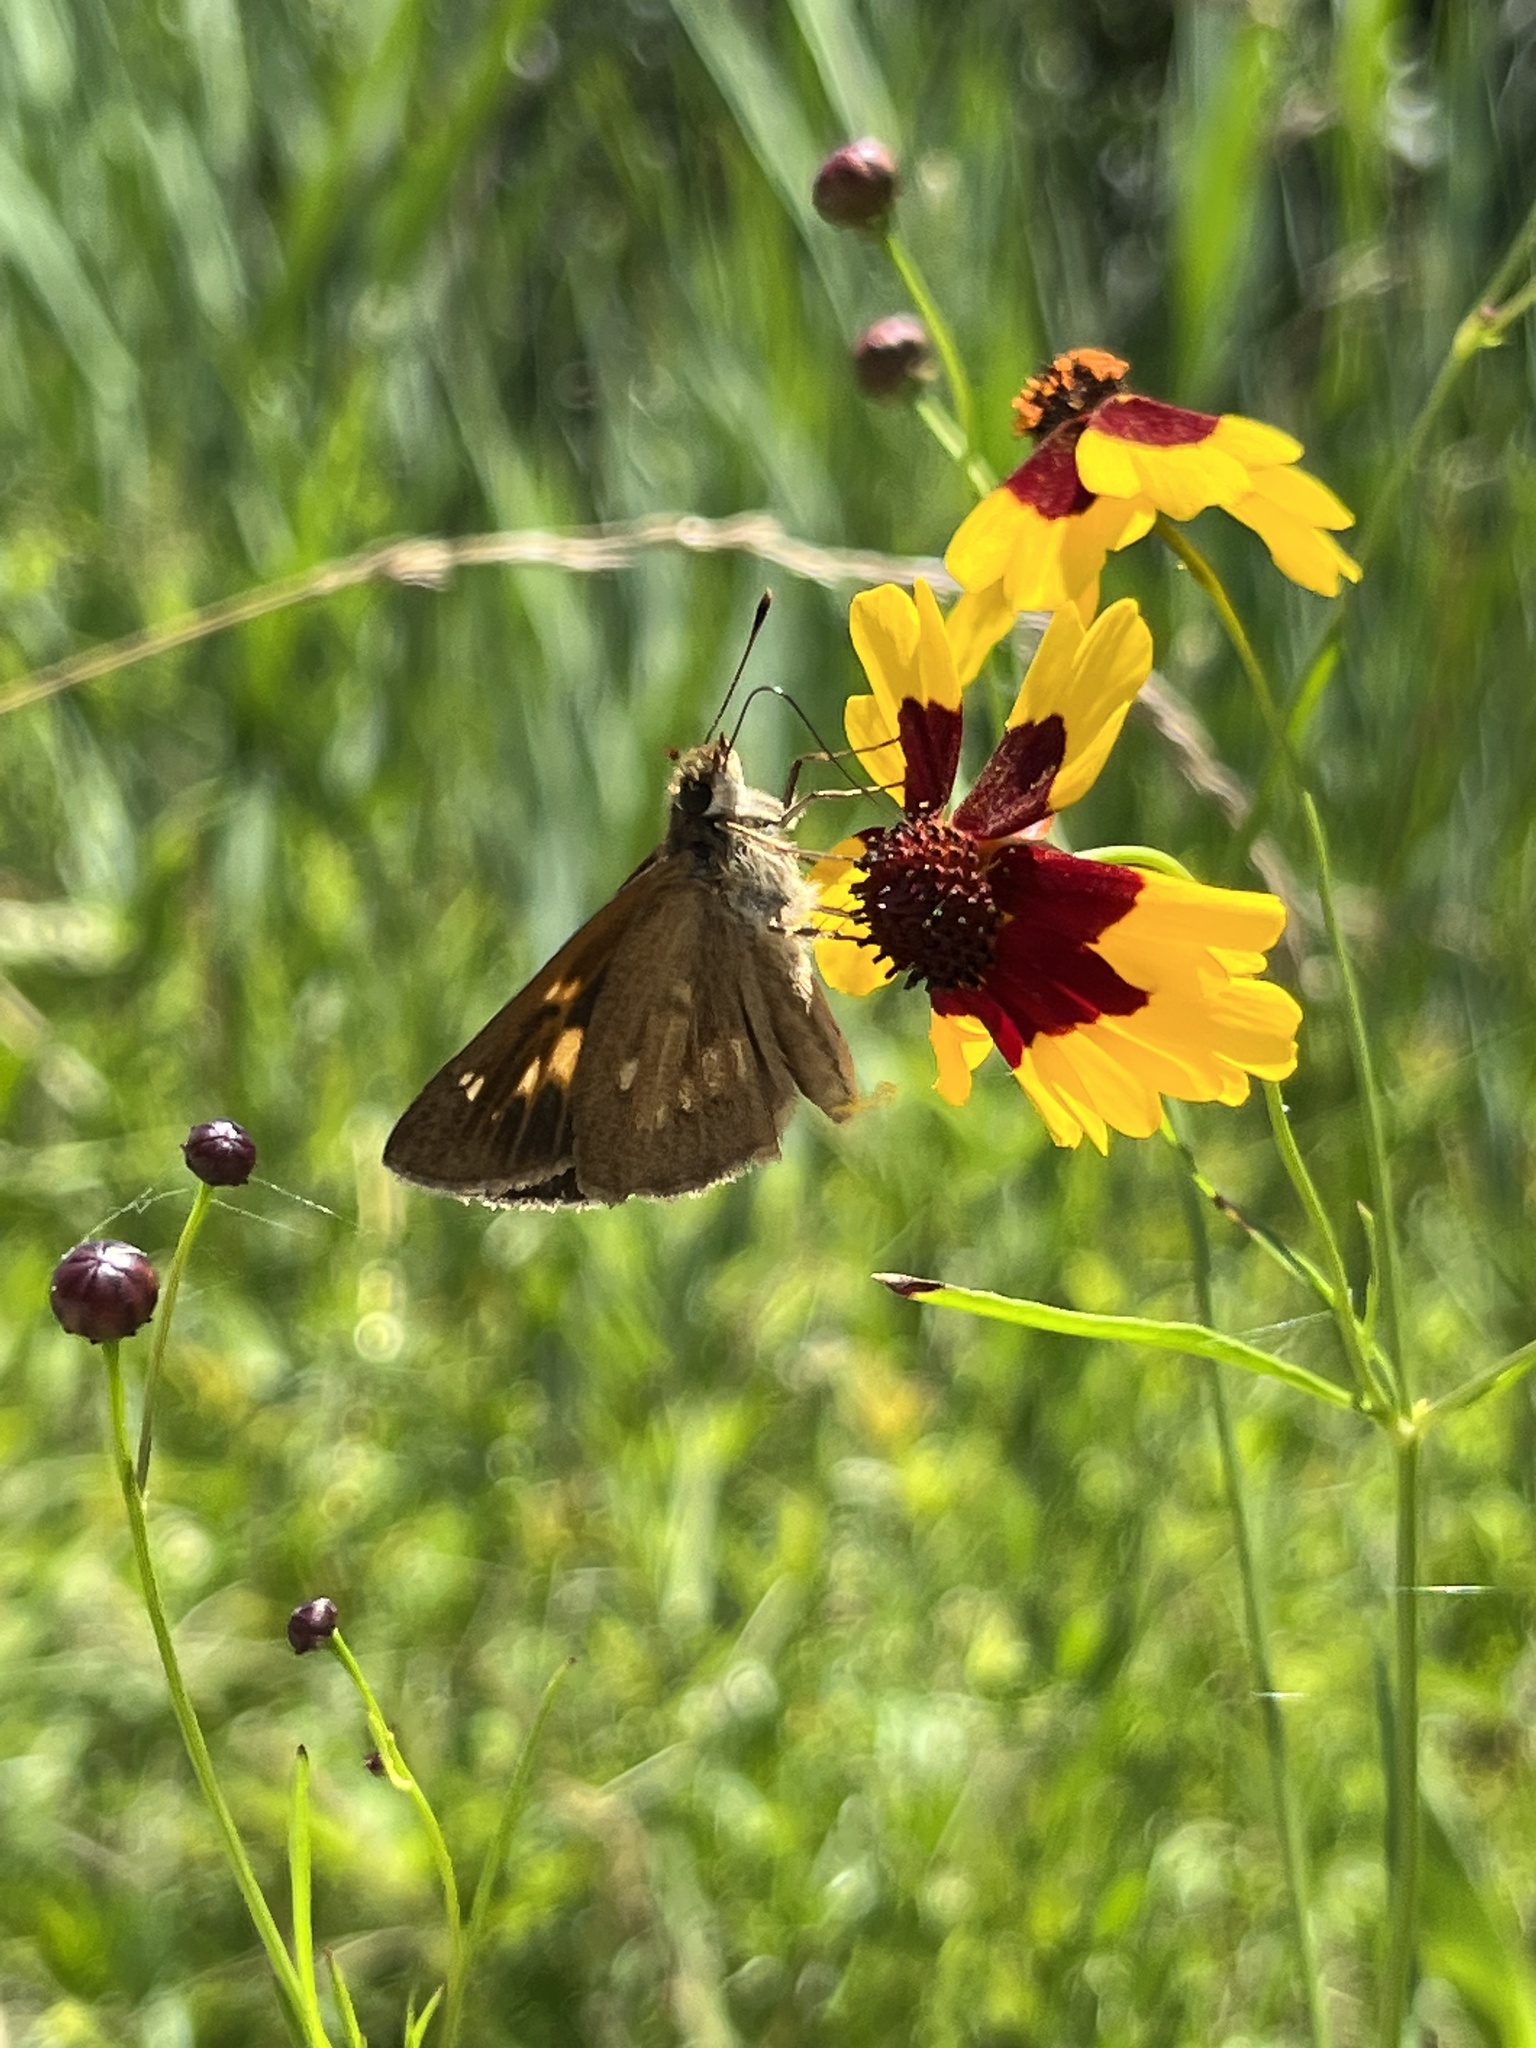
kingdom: Animalia
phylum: Arthropoda
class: Insecta
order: Lepidoptera
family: Hesperiidae
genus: Poanes
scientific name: Poanes viator
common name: Broad-winged skipper
